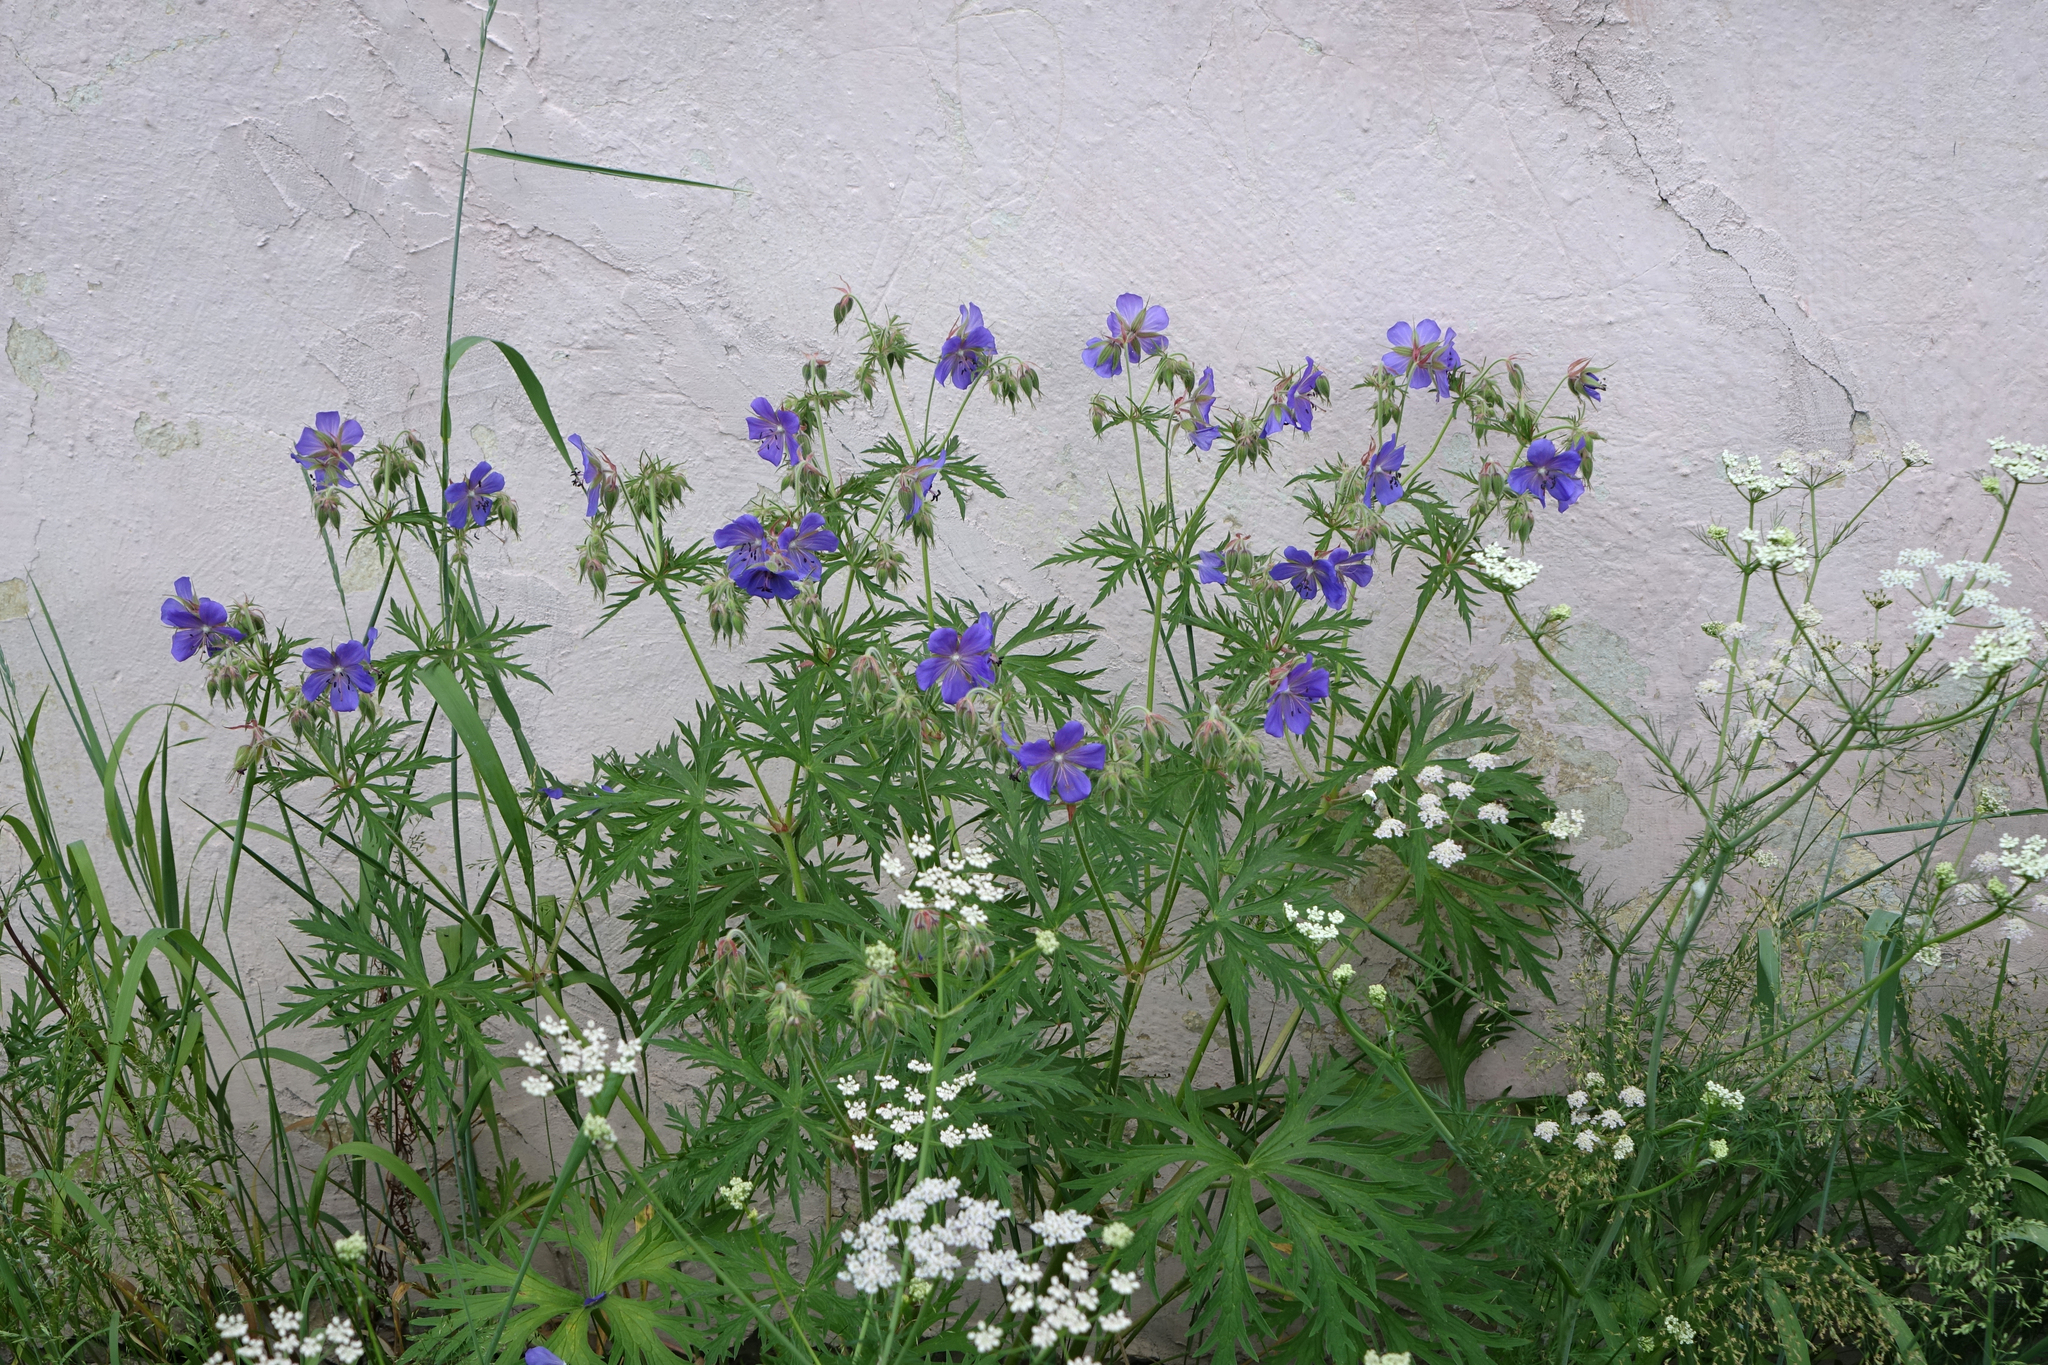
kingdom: Plantae
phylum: Tracheophyta
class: Magnoliopsida
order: Geraniales
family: Geraniaceae
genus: Geranium
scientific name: Geranium pratense
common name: Meadow crane's-bill
